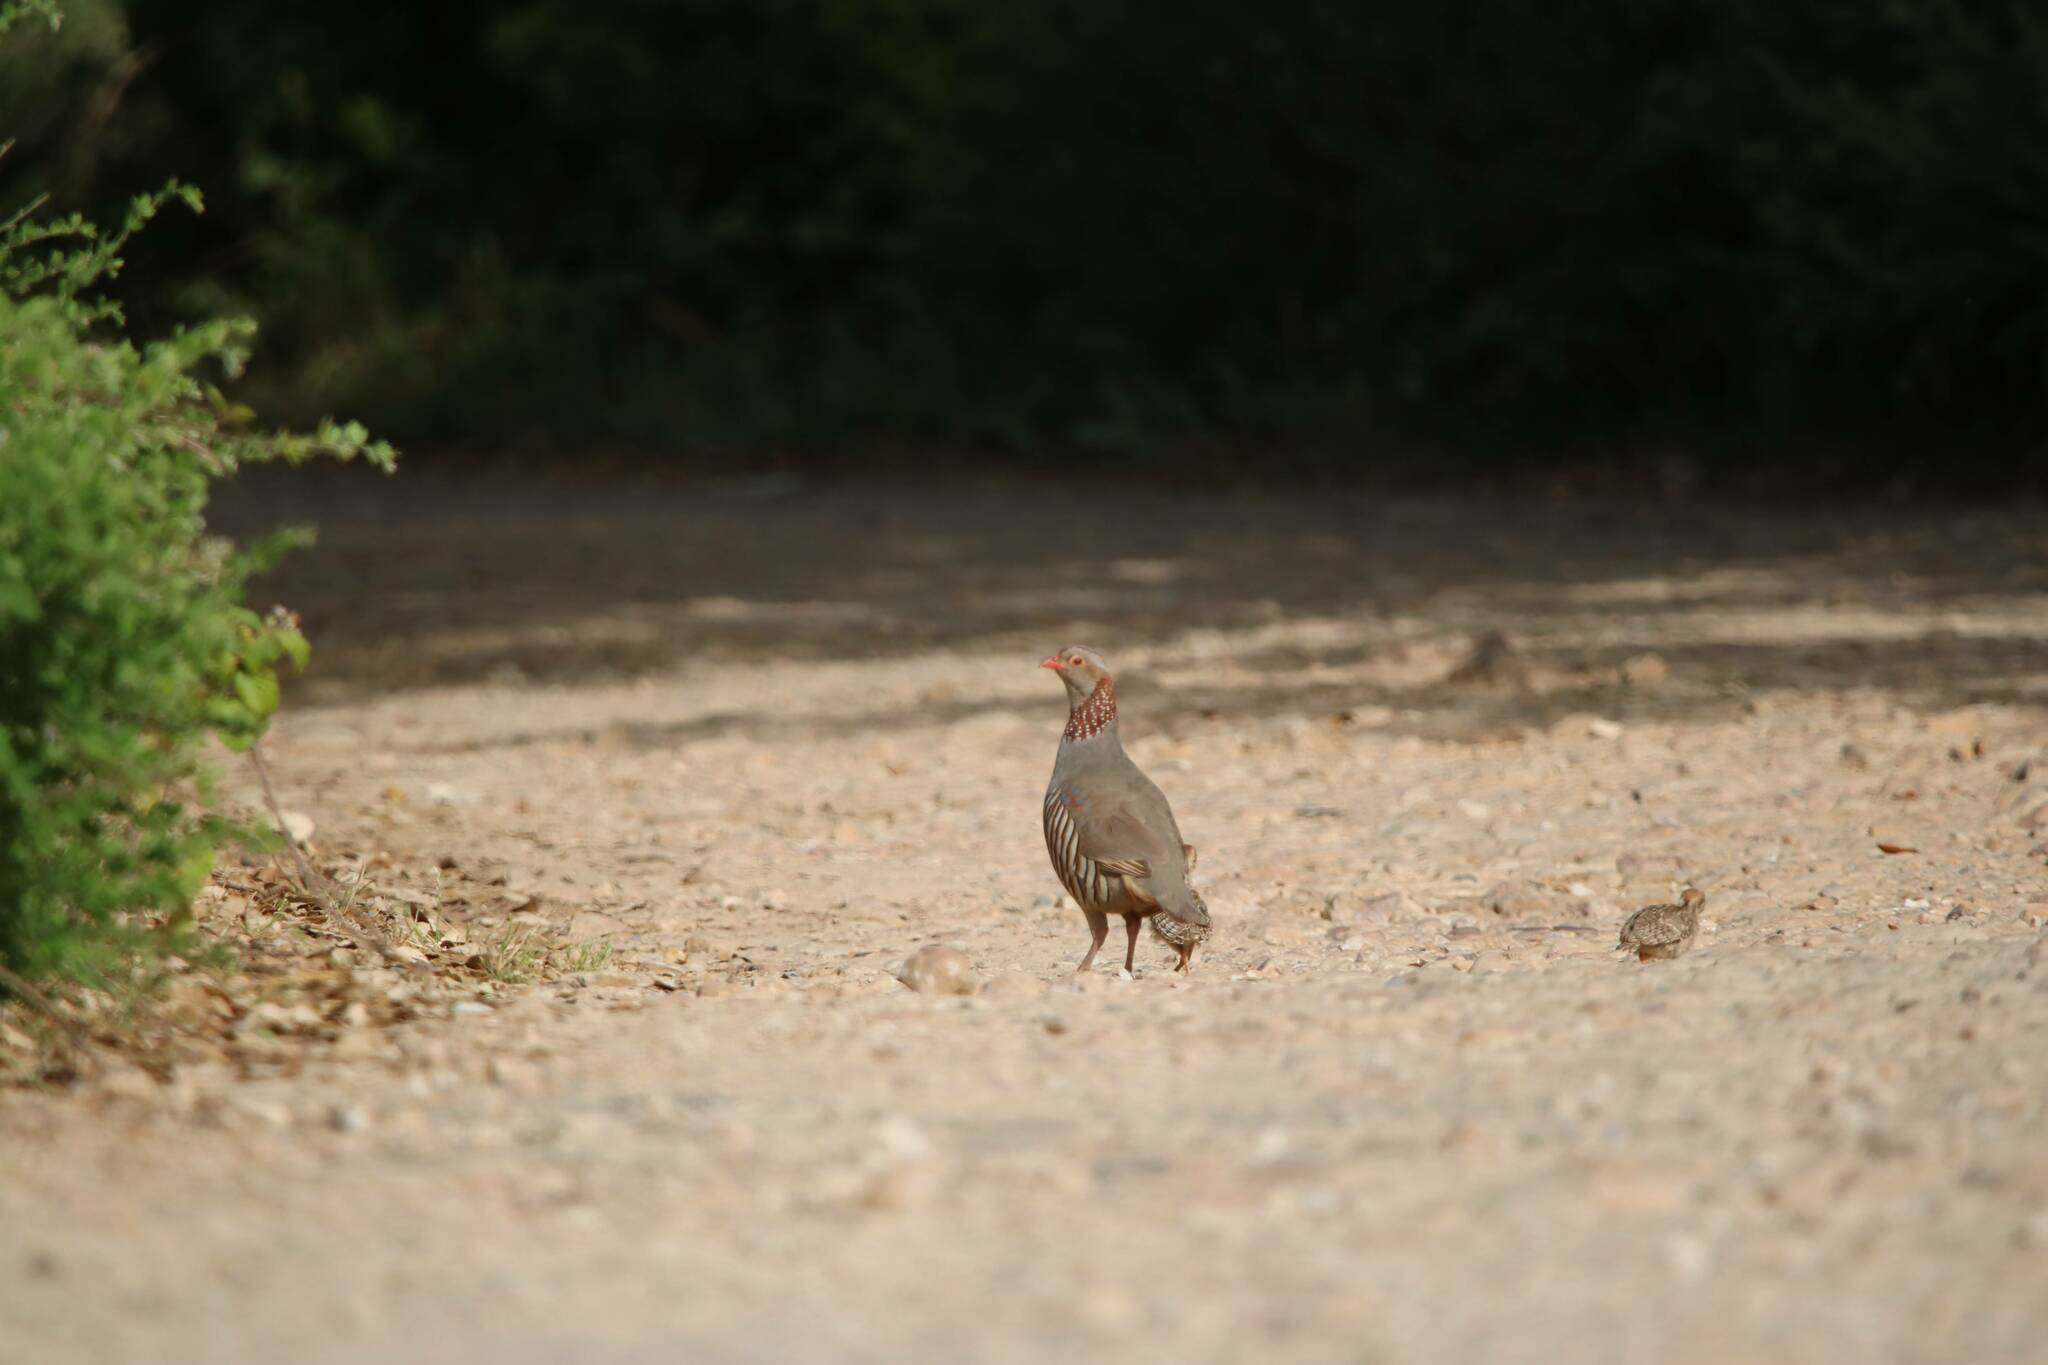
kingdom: Animalia
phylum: Chordata
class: Aves
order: Galliformes
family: Phasianidae
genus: Alectoris
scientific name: Alectoris barbara
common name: Barbary partridge
